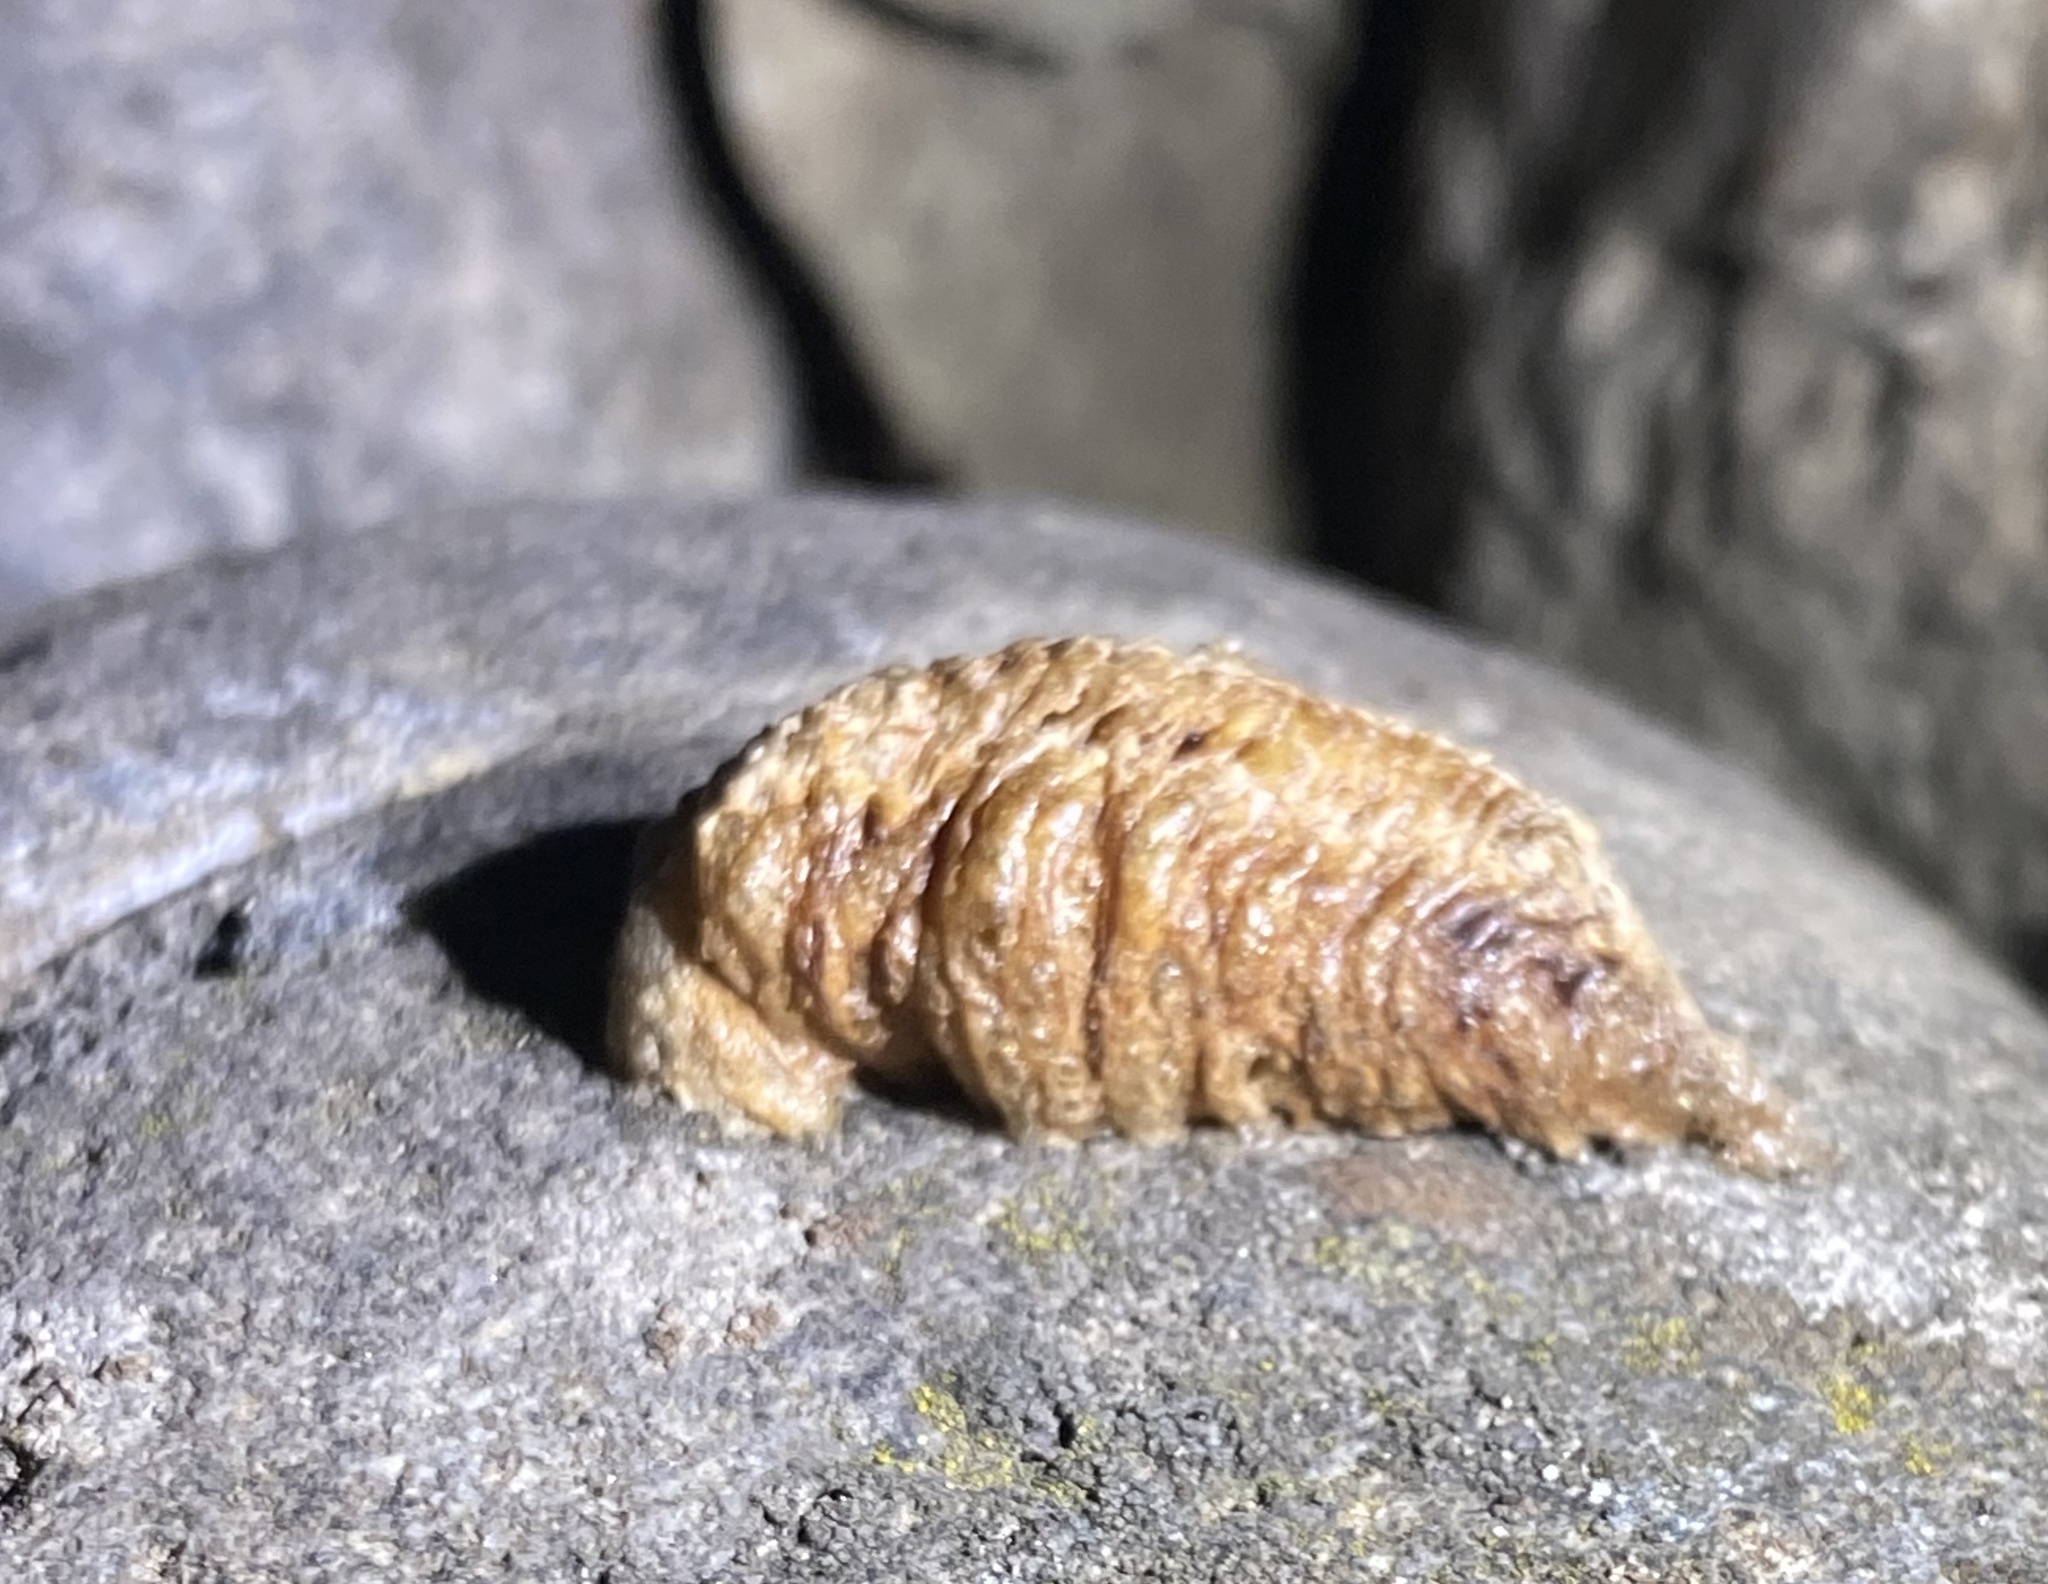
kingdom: Animalia
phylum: Arthropoda
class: Insecta
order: Mantodea
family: Mantidae
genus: Mantis
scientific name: Mantis religiosa
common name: Praying mantis
